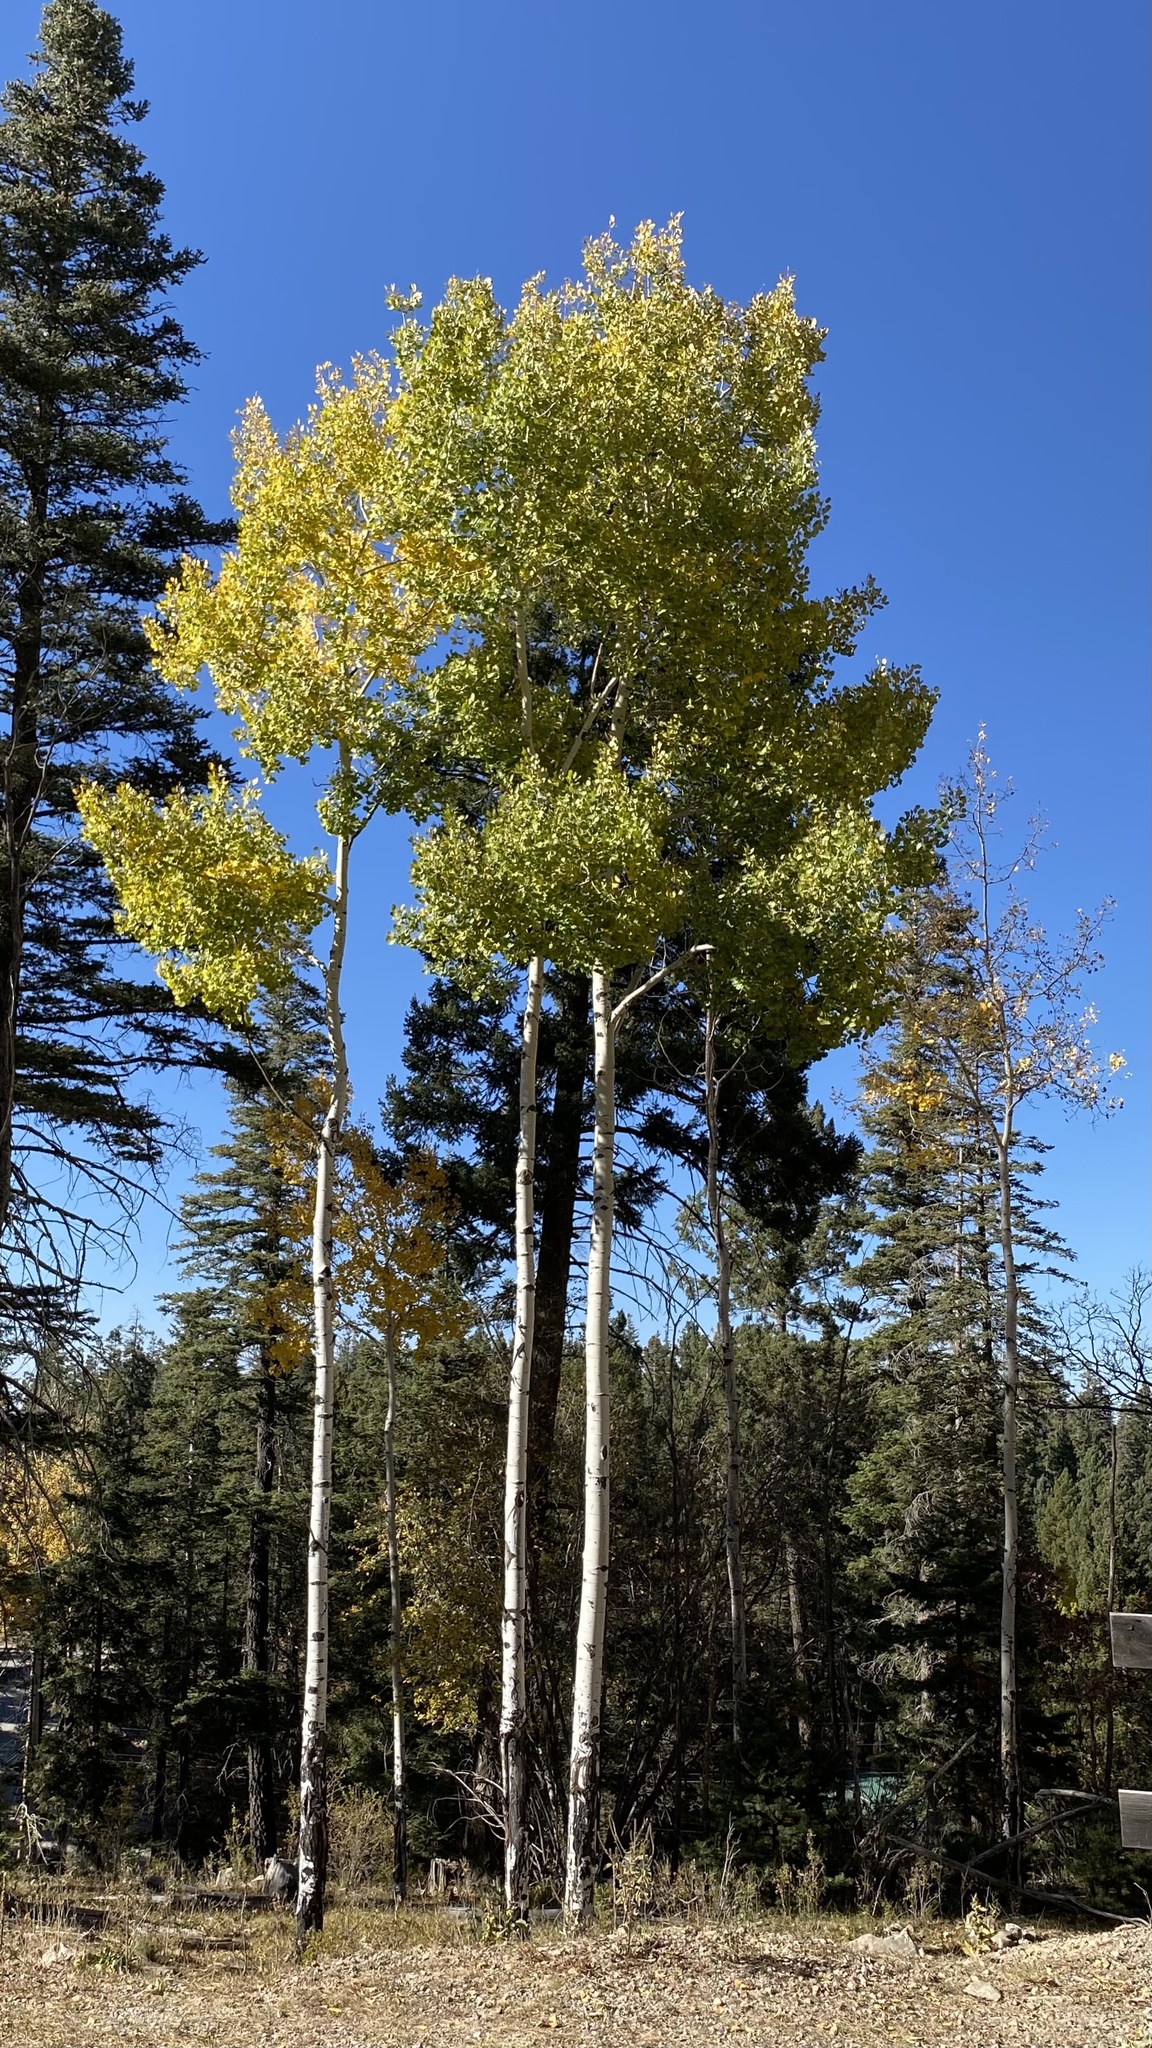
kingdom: Plantae
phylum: Tracheophyta
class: Magnoliopsida
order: Malpighiales
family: Salicaceae
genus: Populus
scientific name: Populus tremuloides
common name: Quaking aspen
